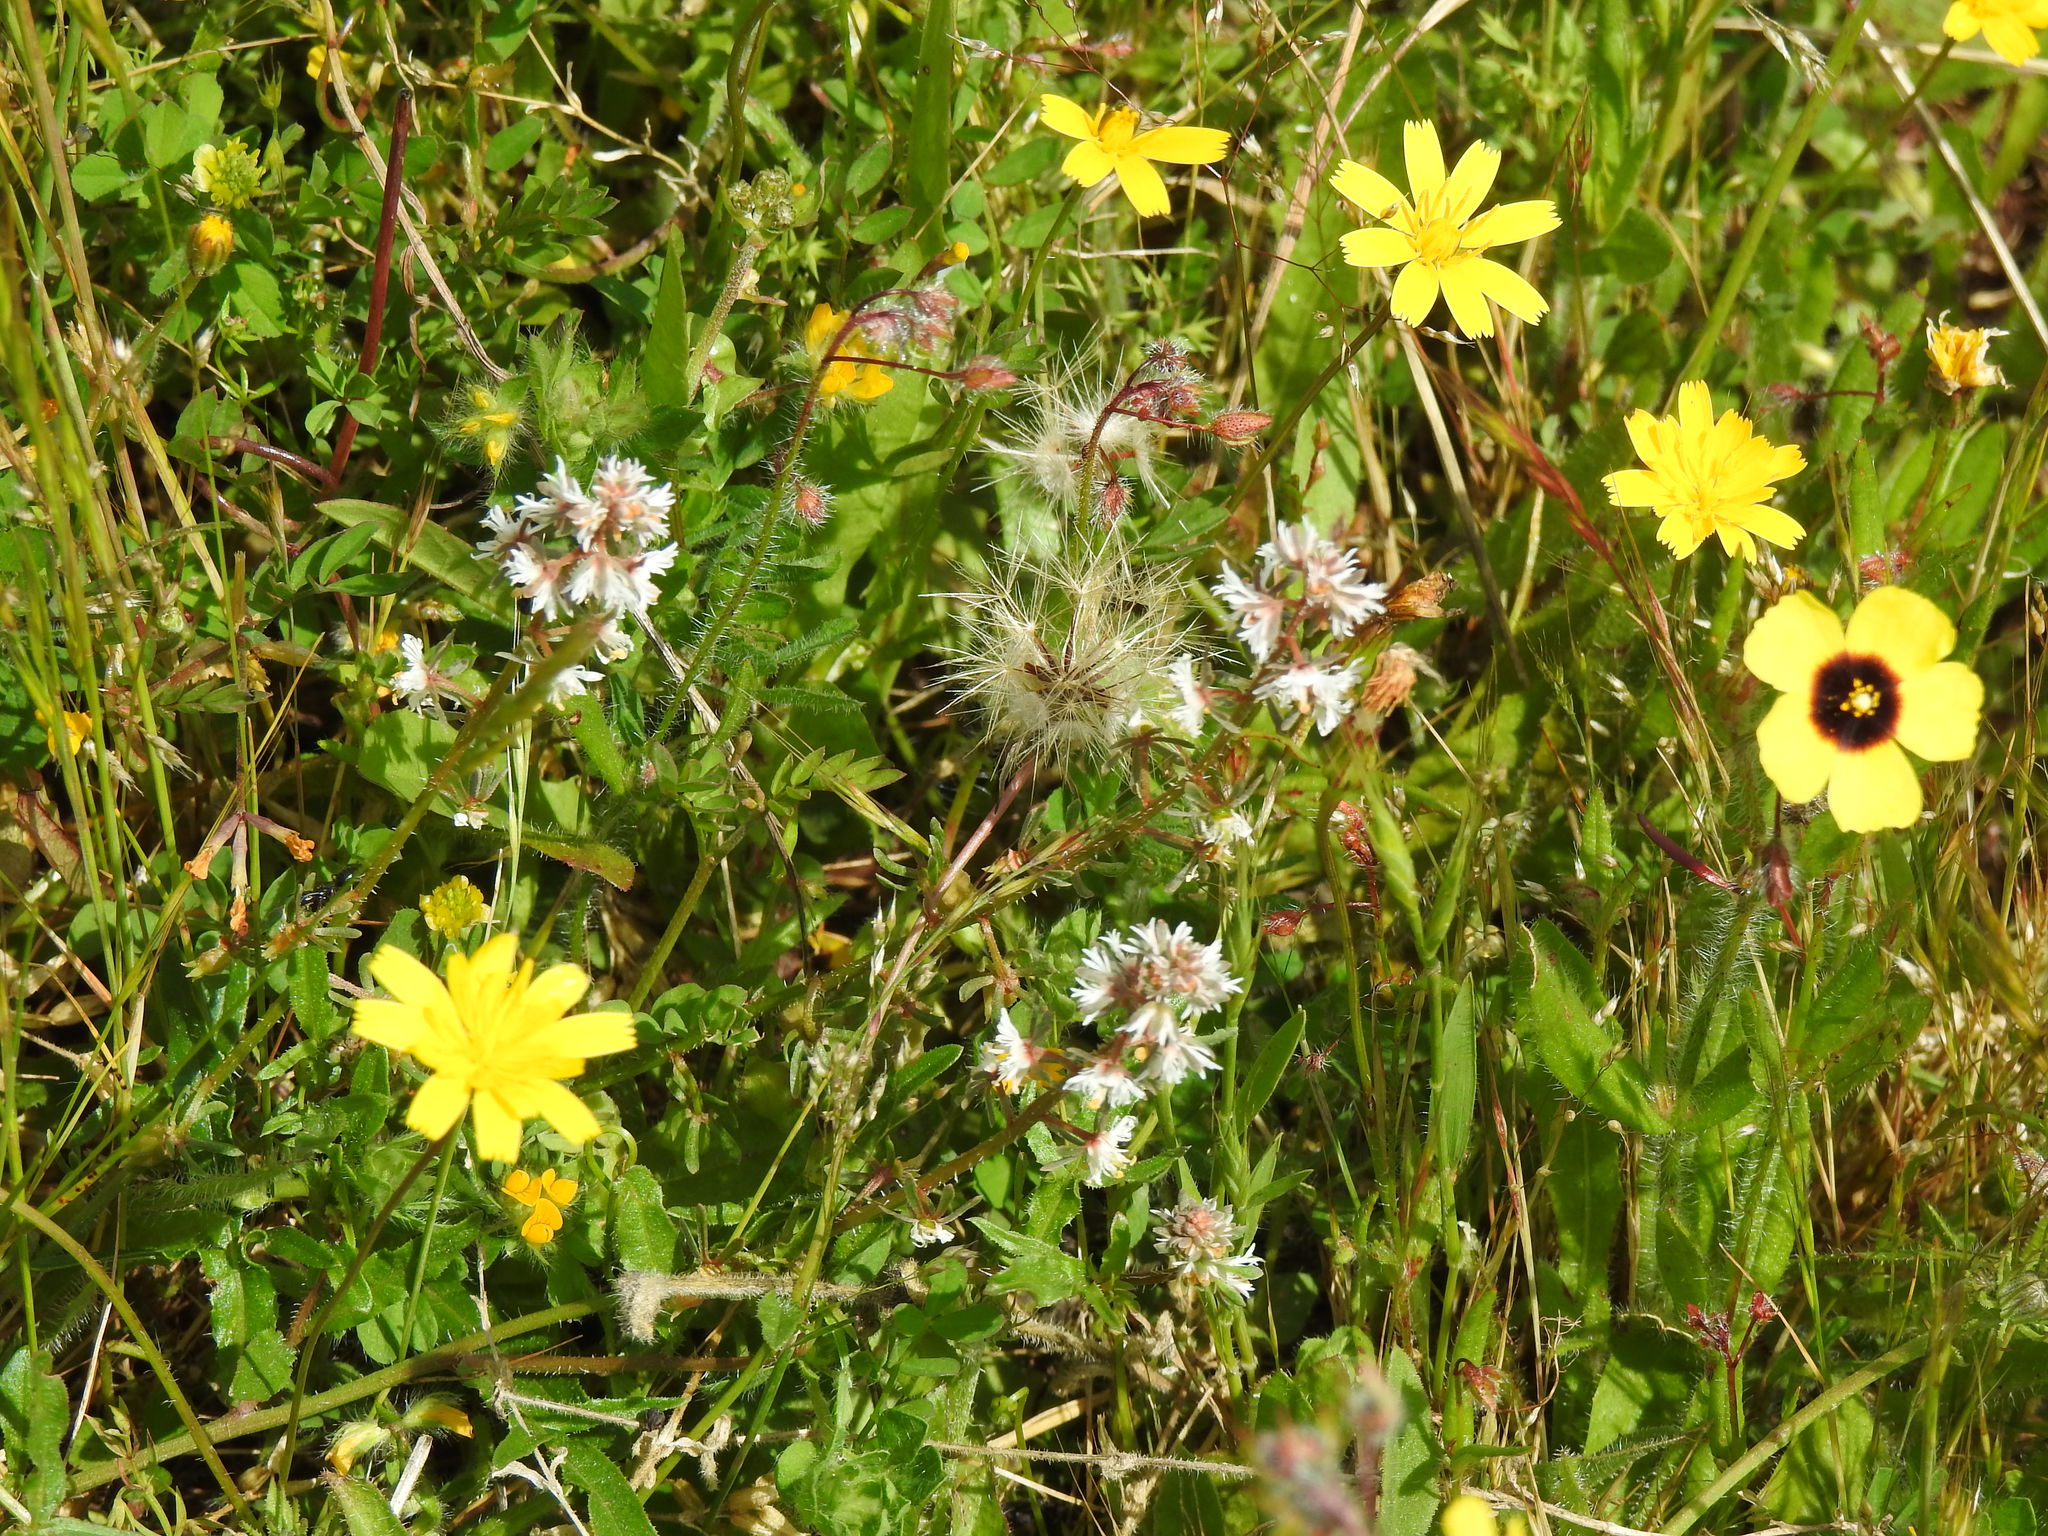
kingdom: Plantae
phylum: Tracheophyta
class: Magnoliopsida
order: Brassicales
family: Resedaceae
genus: Reseda
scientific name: Reseda media
